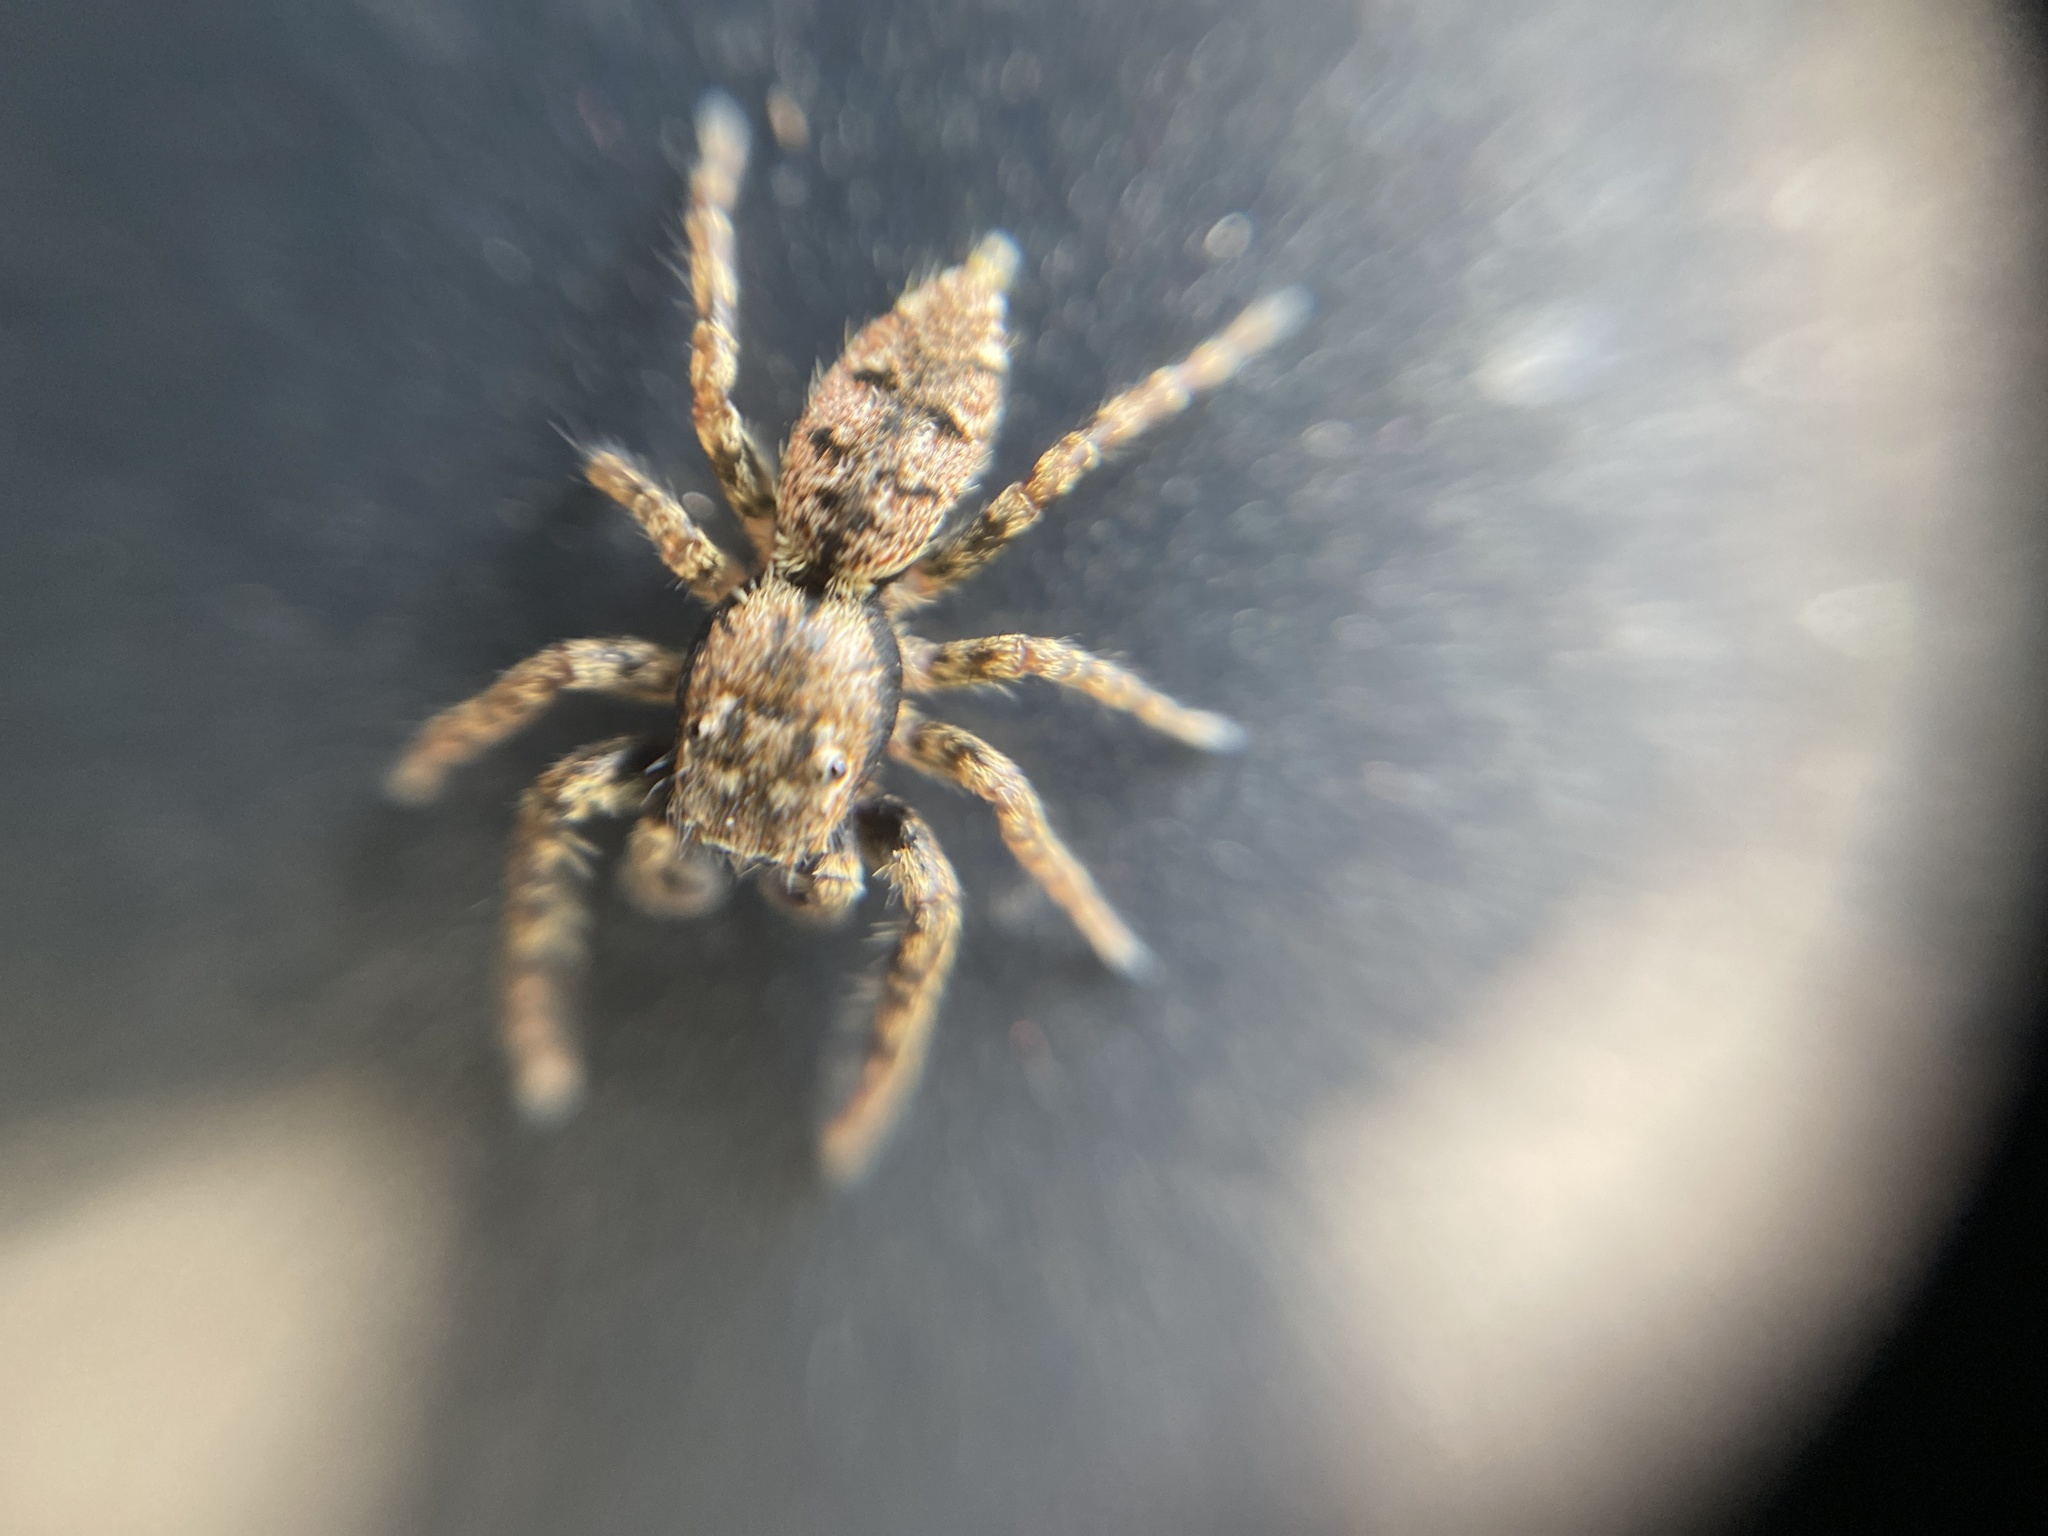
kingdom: Animalia
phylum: Arthropoda
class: Arachnida
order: Araneae
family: Salticidae
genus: Marpissa
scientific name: Marpissa muscosa
